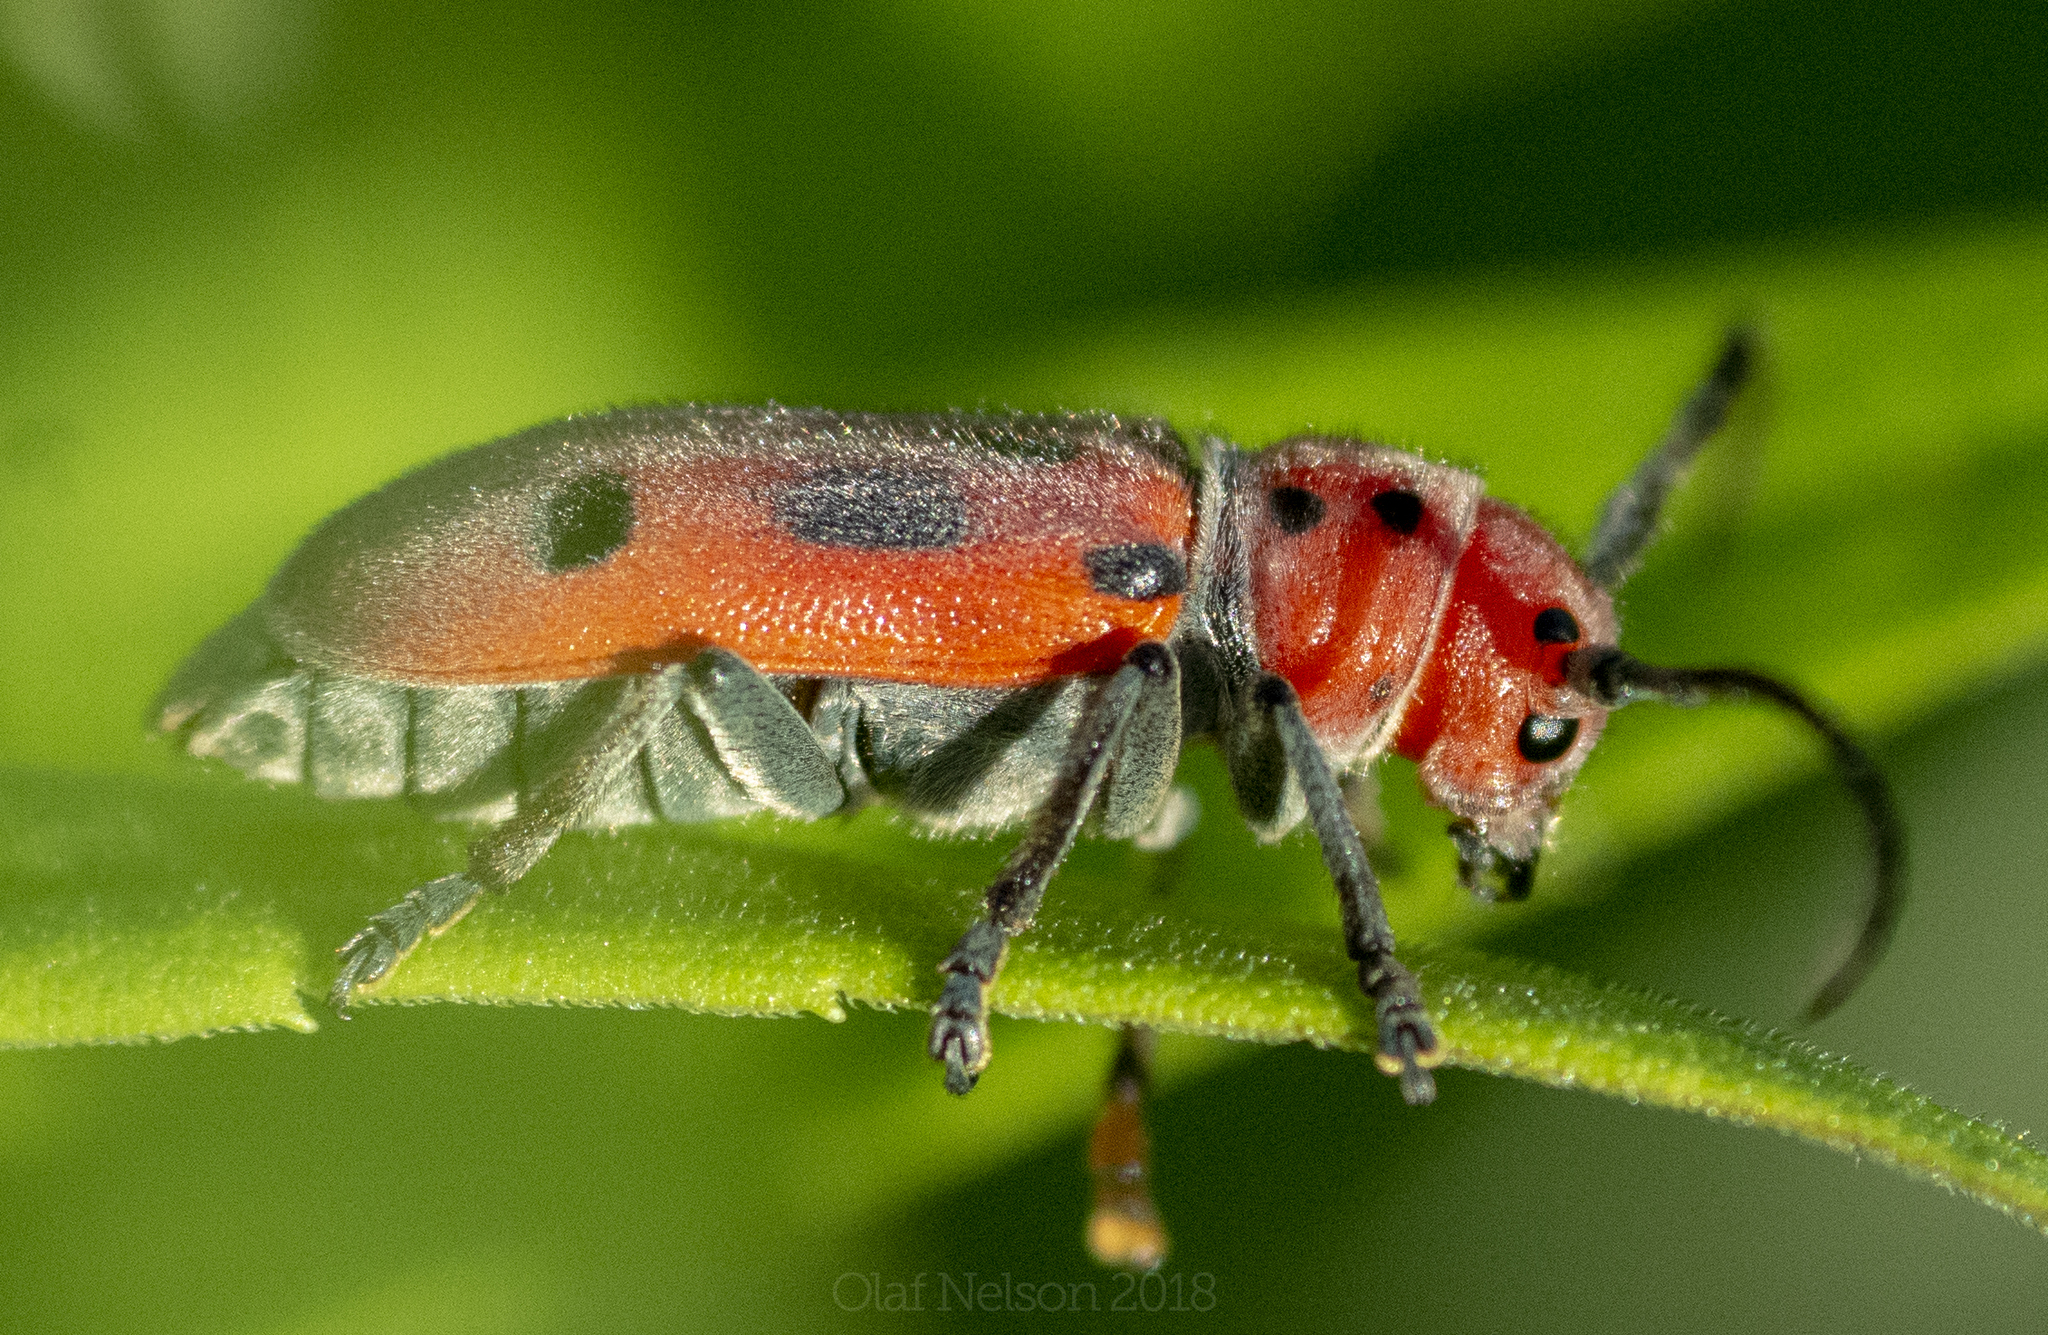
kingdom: Animalia
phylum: Arthropoda
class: Insecta
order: Coleoptera
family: Cerambycidae
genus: Tetraopes
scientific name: Tetraopes tetrophthalmus
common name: Red milkweed beetle
